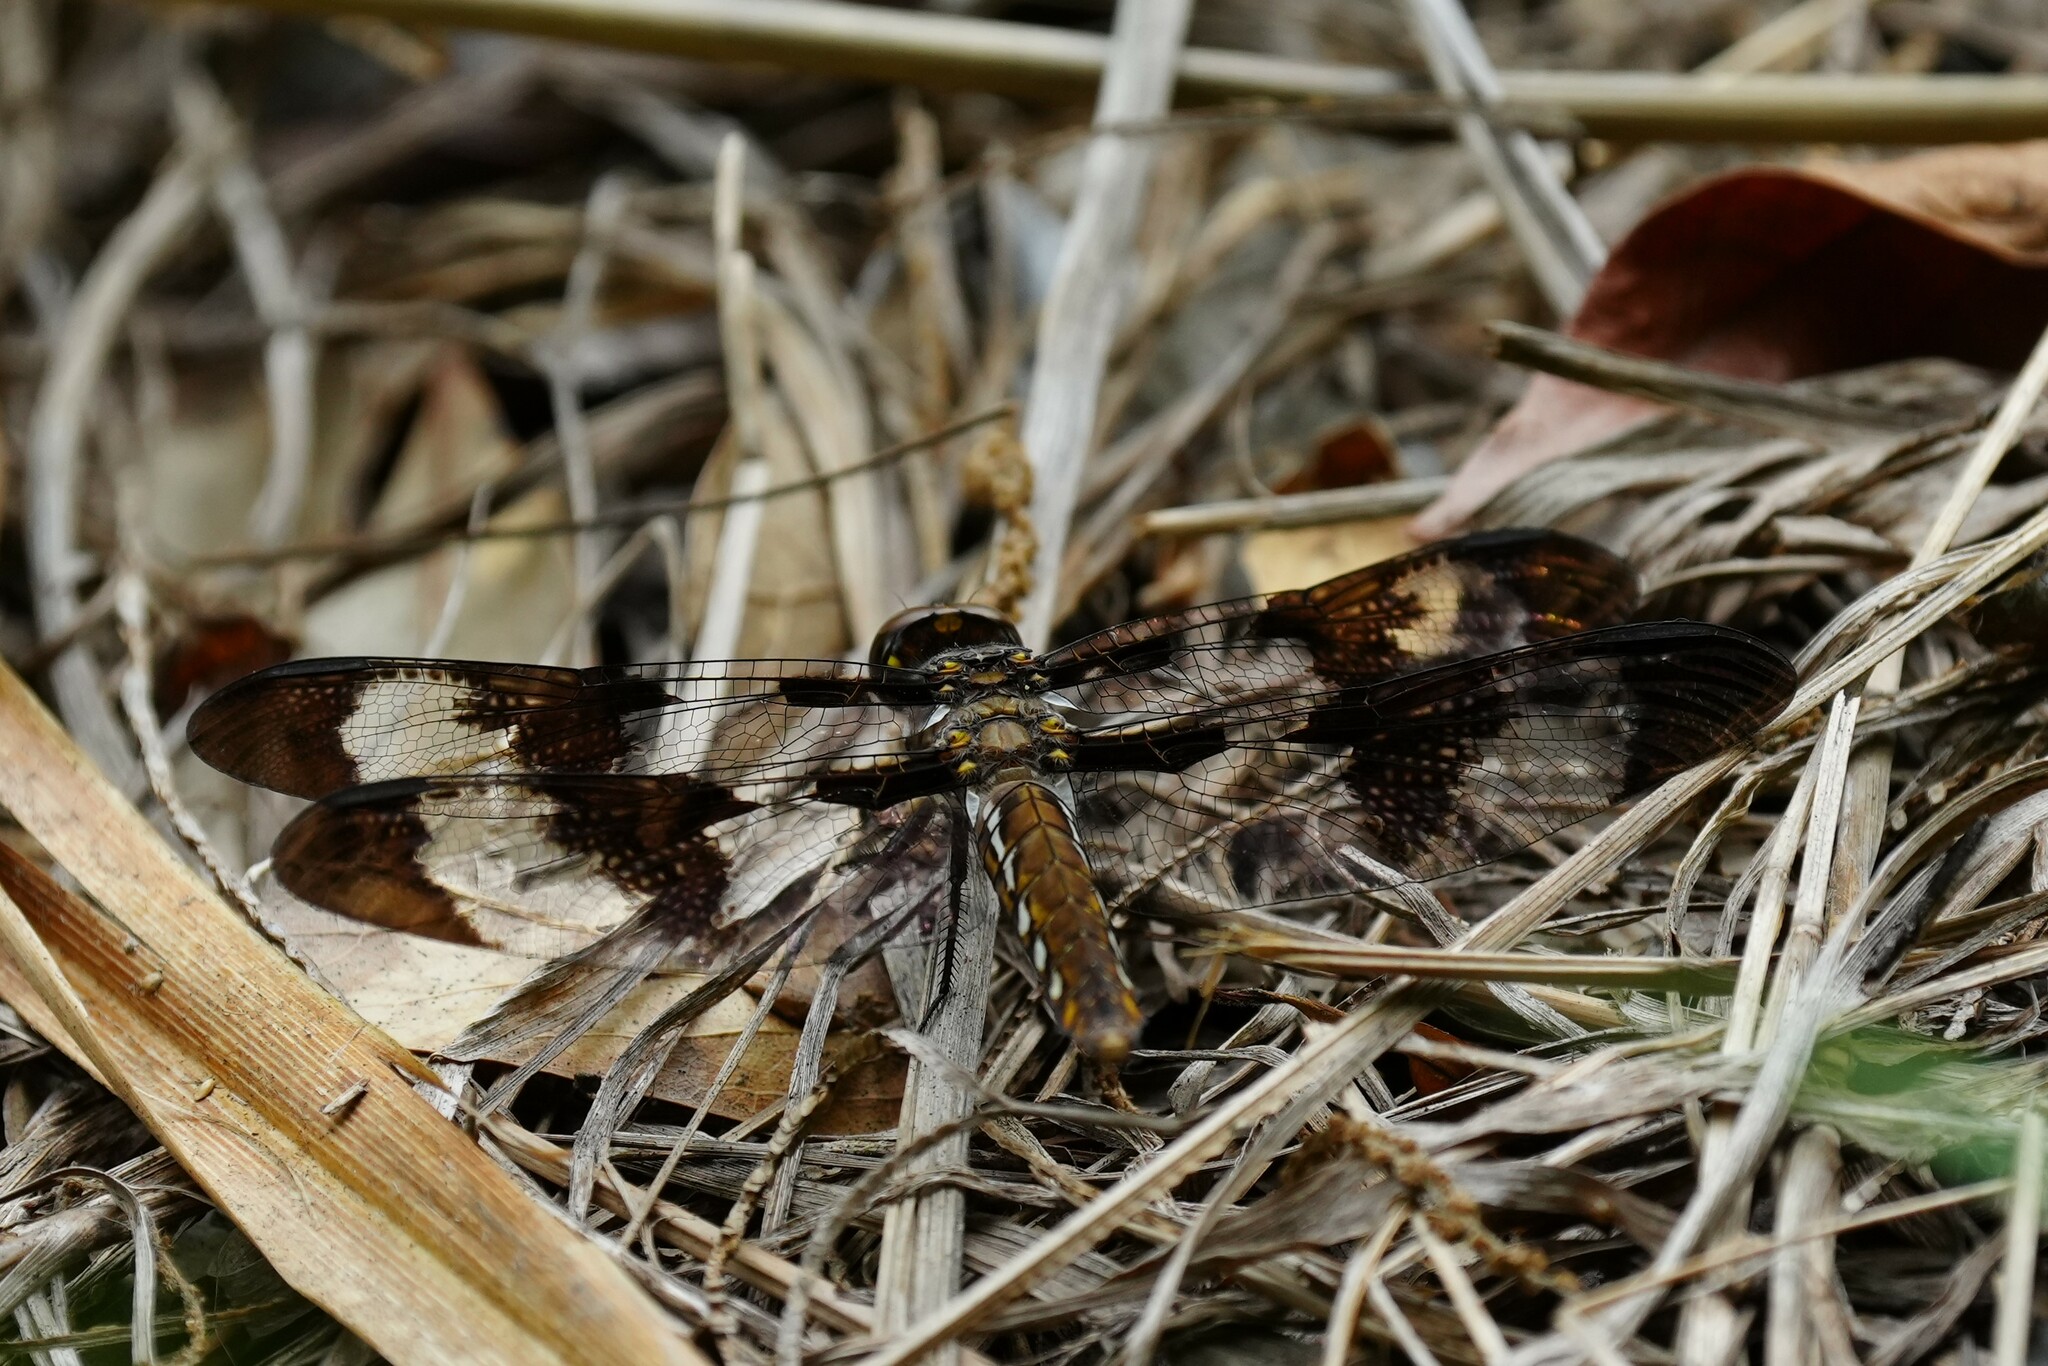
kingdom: Animalia
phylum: Arthropoda
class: Insecta
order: Odonata
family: Libellulidae
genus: Plathemis
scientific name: Plathemis lydia
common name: Common whitetail
